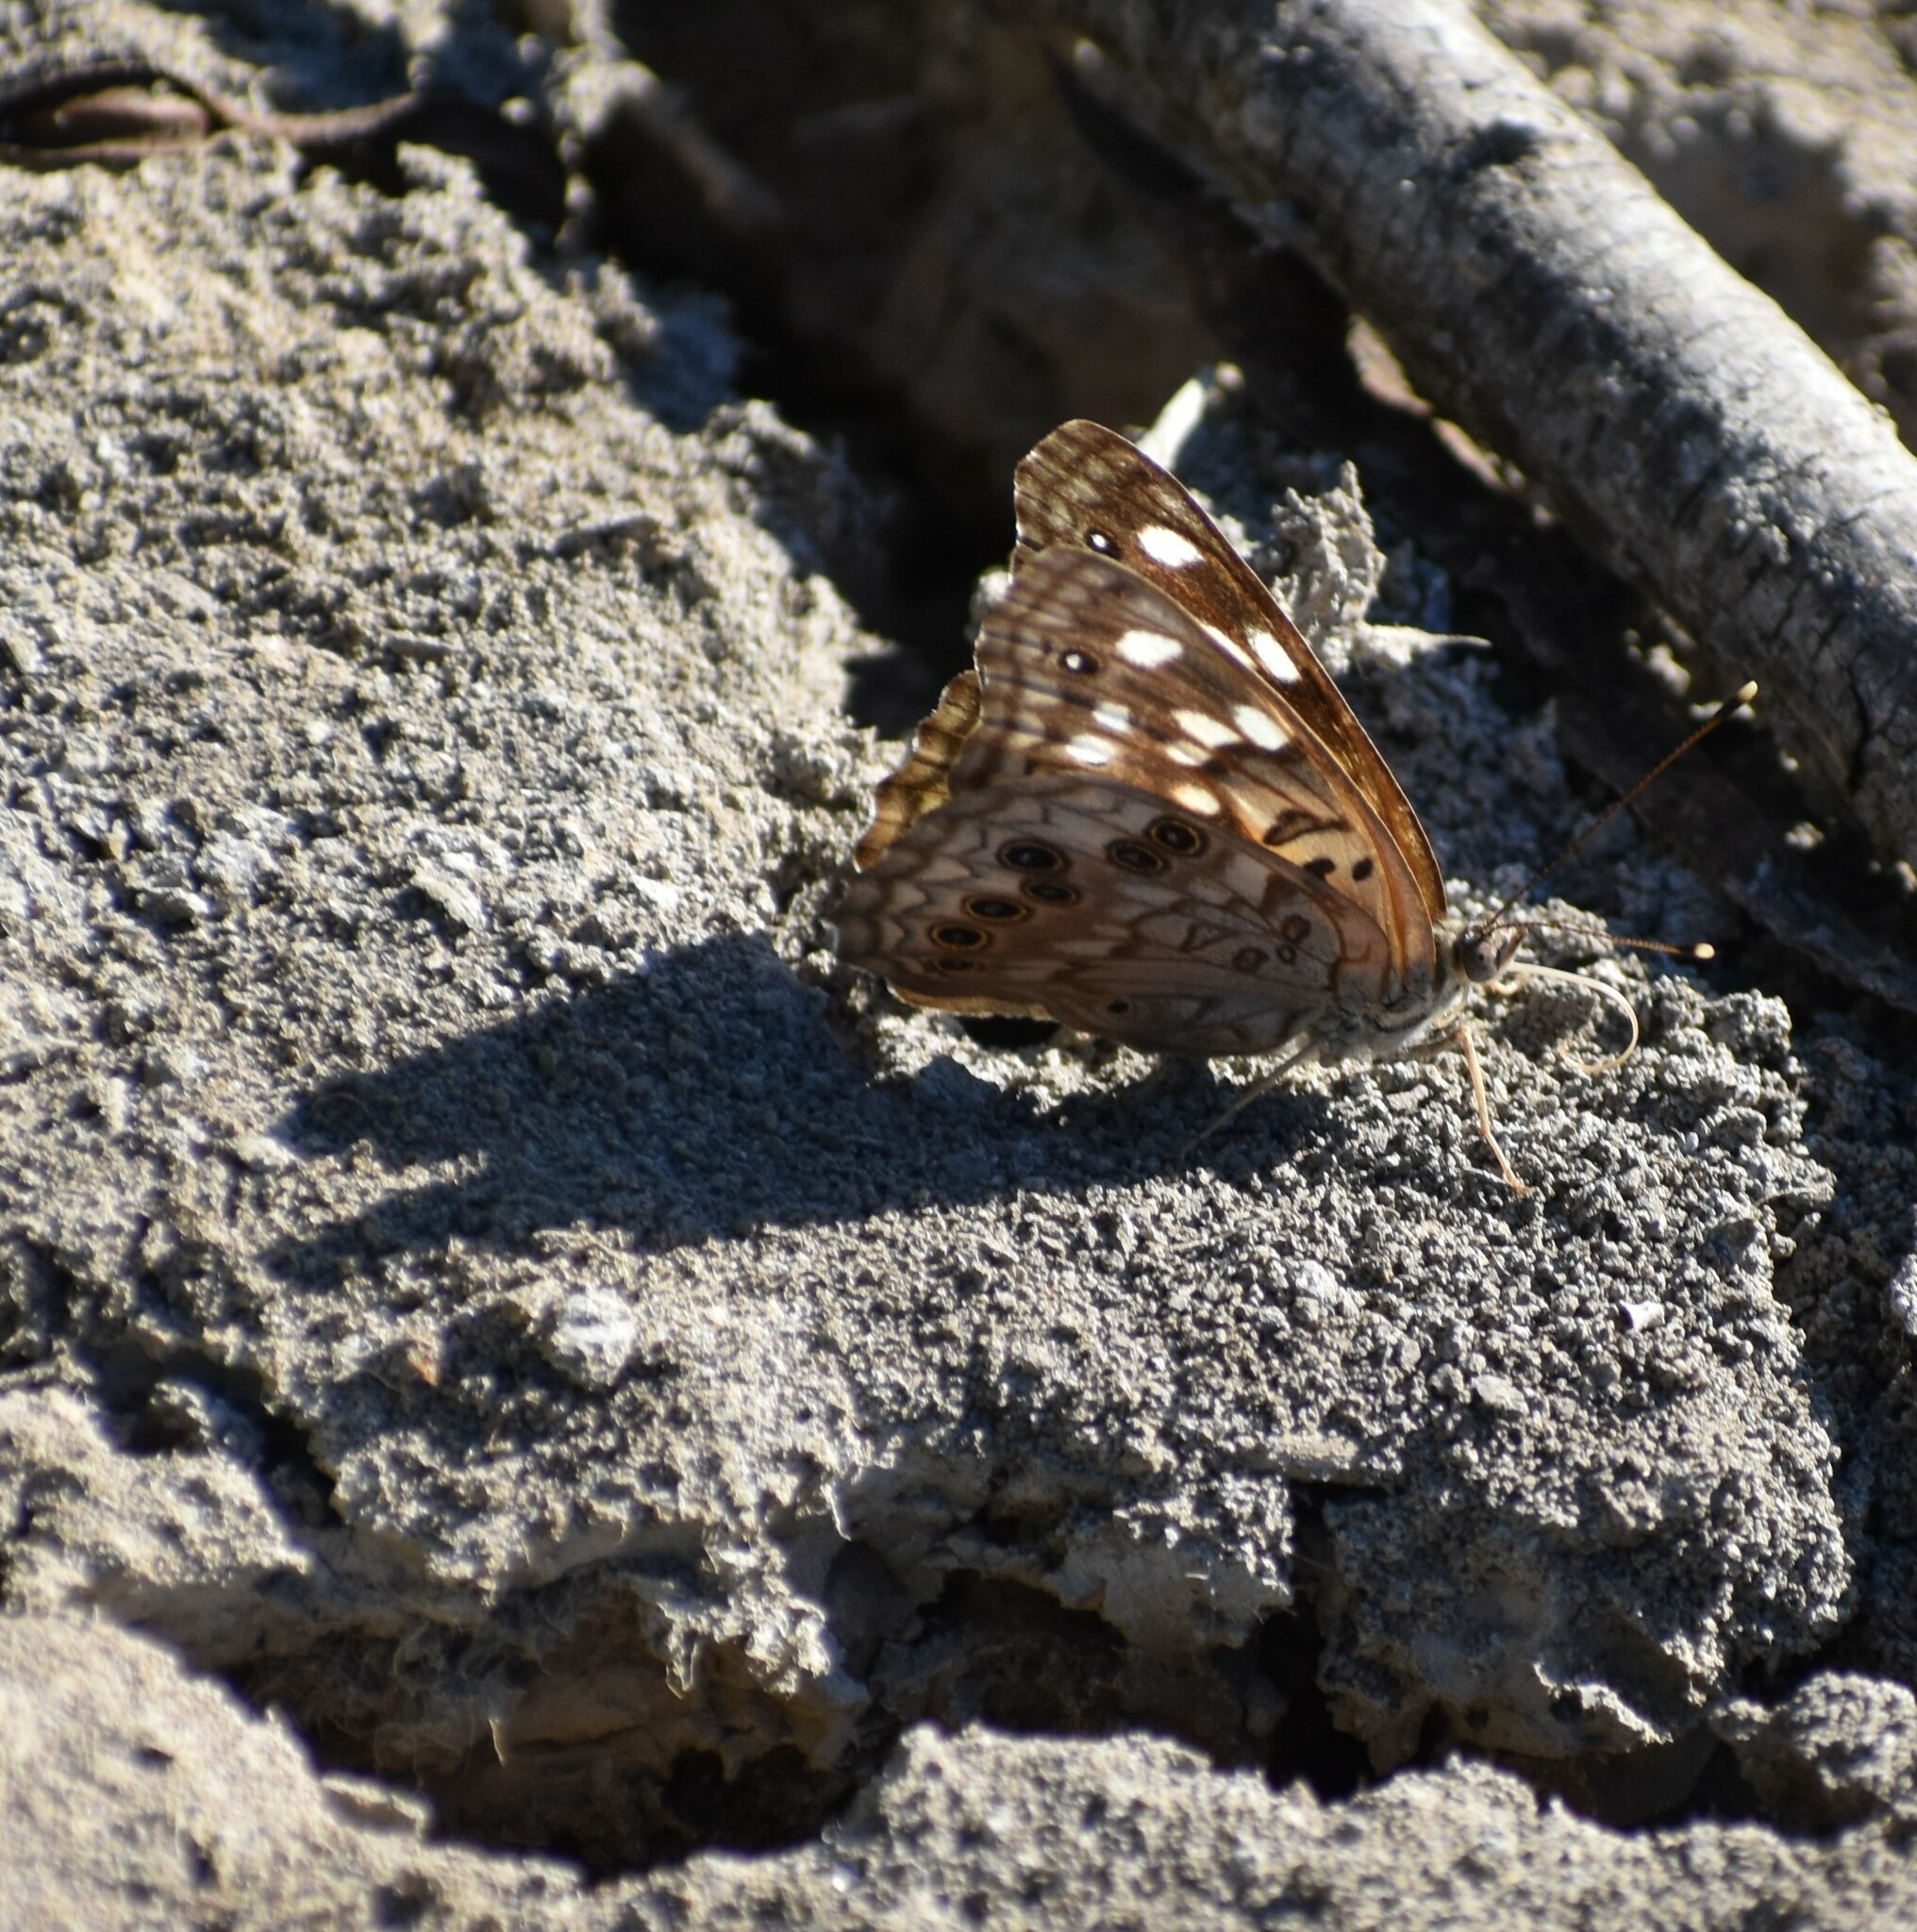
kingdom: Animalia
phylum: Arthropoda
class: Insecta
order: Lepidoptera
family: Nymphalidae
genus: Asterocampa
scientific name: Asterocampa celtis
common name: Hackberry emperor
